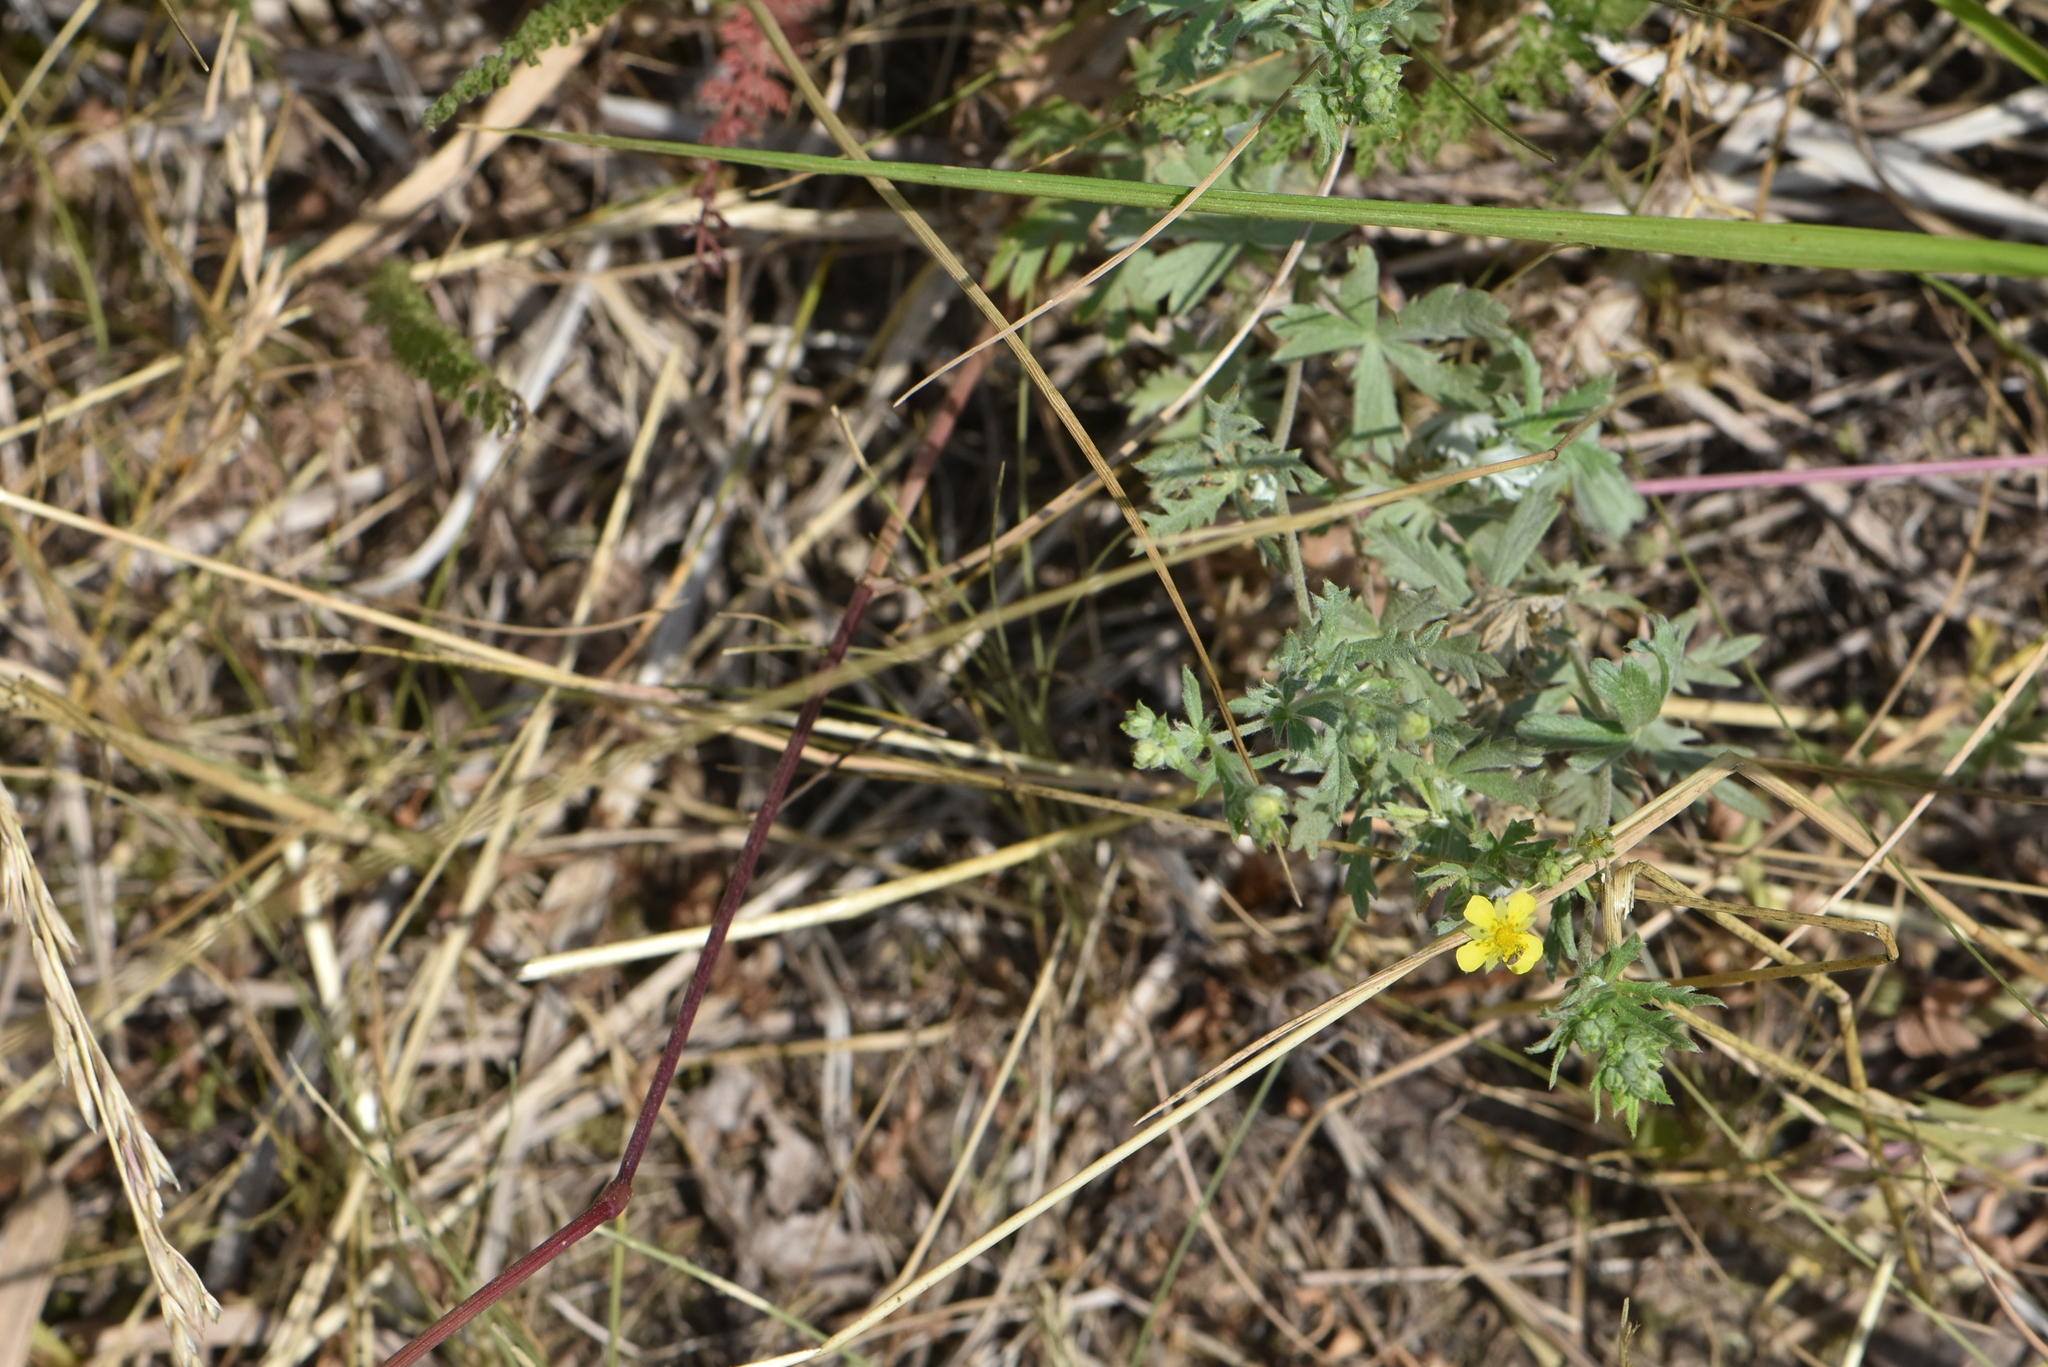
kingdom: Plantae
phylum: Tracheophyta
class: Magnoliopsida
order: Rosales
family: Rosaceae
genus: Potentilla
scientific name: Potentilla argentea
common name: Hoary cinquefoil
